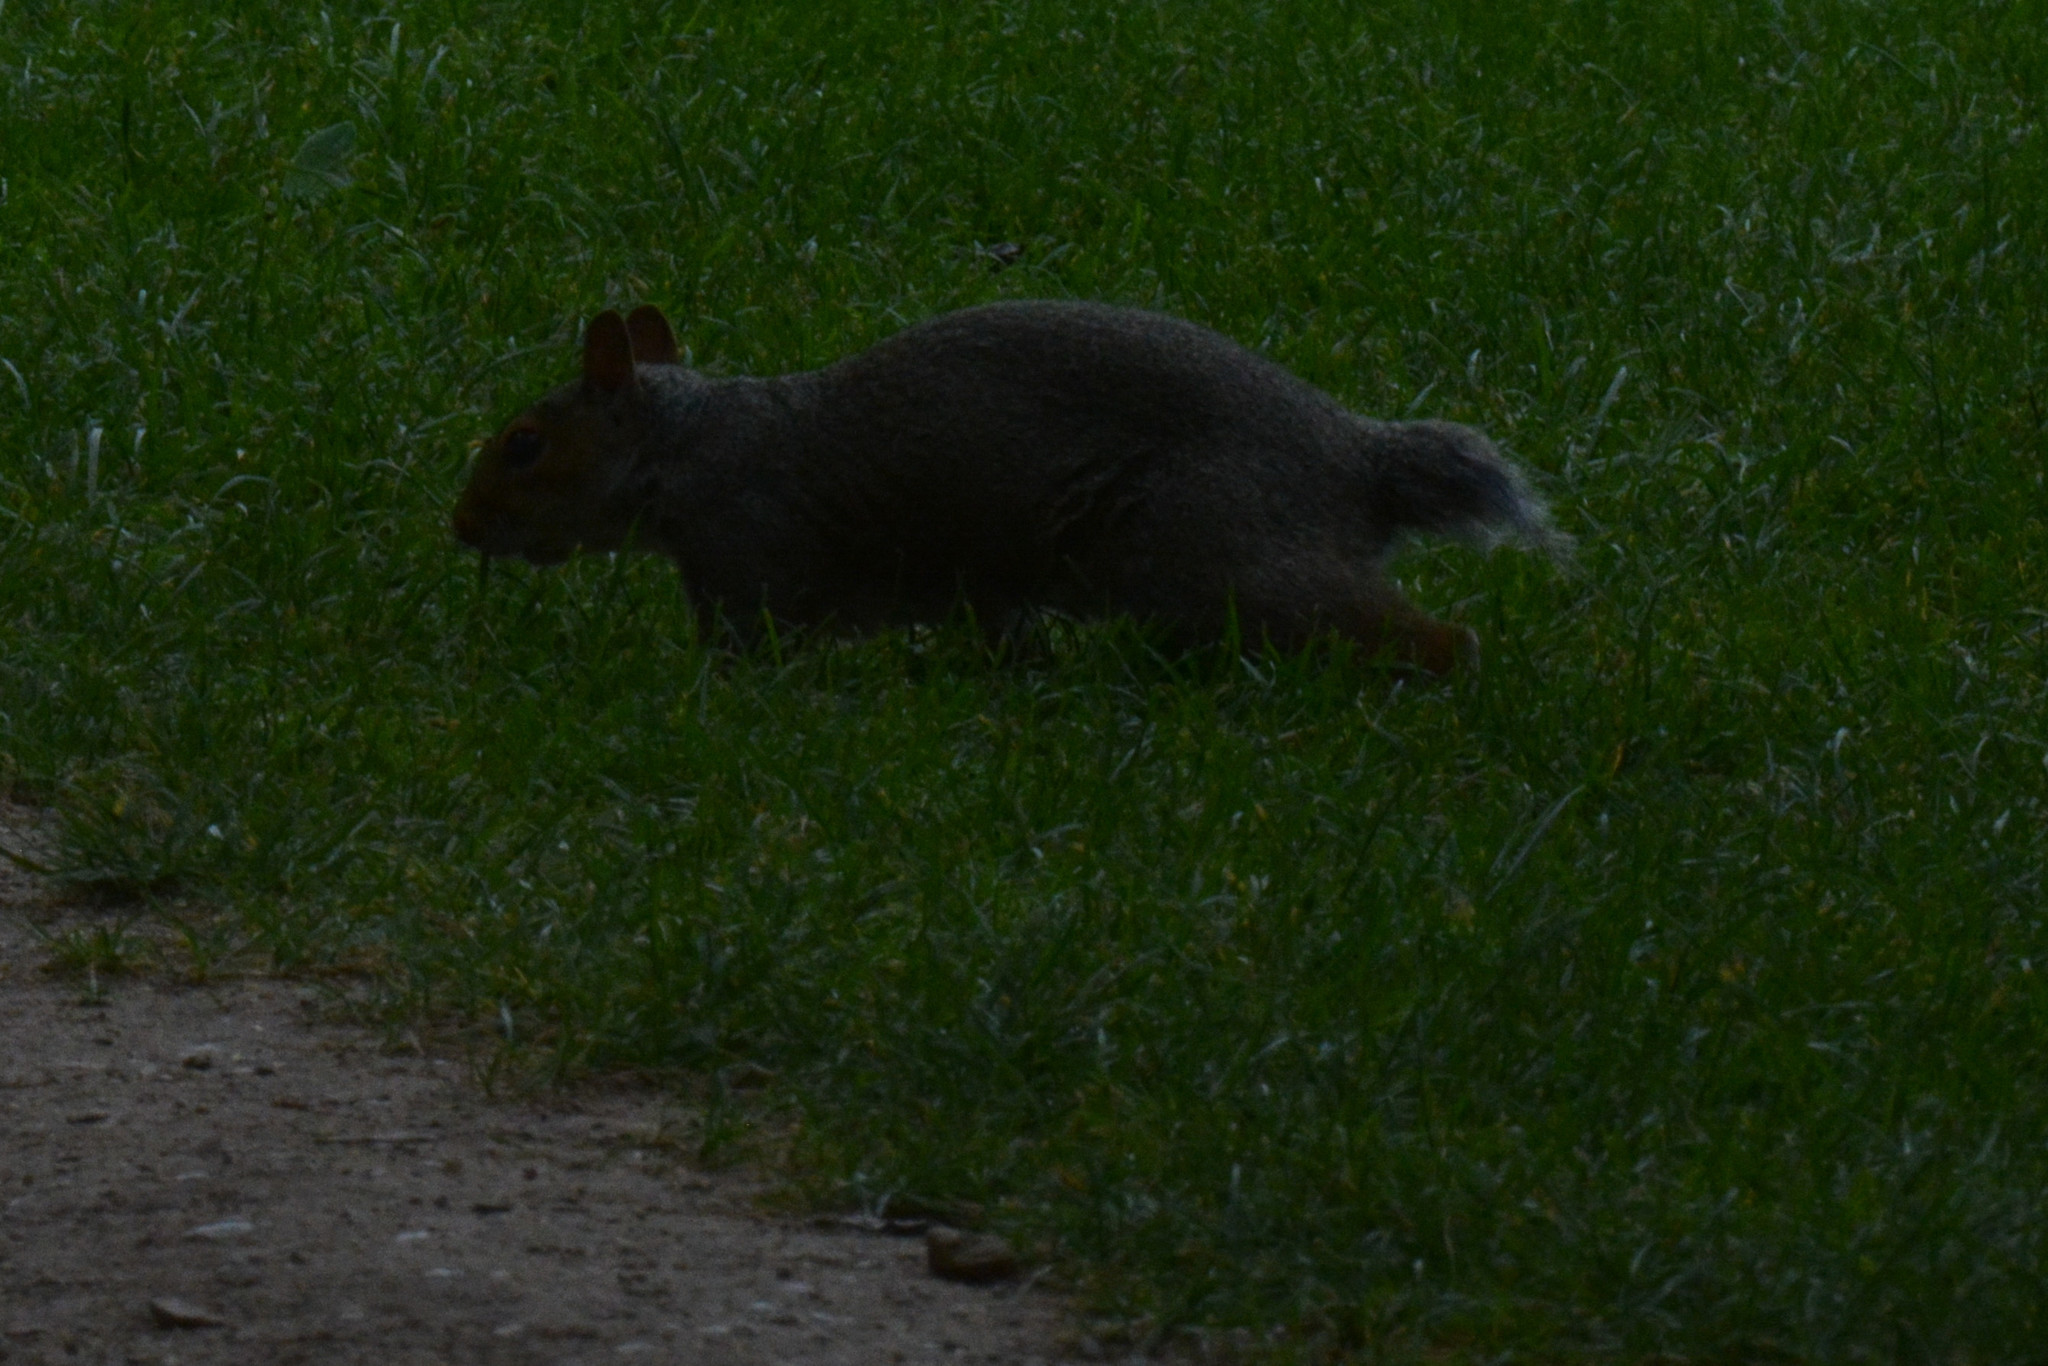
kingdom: Animalia
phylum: Chordata
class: Mammalia
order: Rodentia
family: Sciuridae
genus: Sciurus
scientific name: Sciurus carolinensis
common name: Eastern gray squirrel
